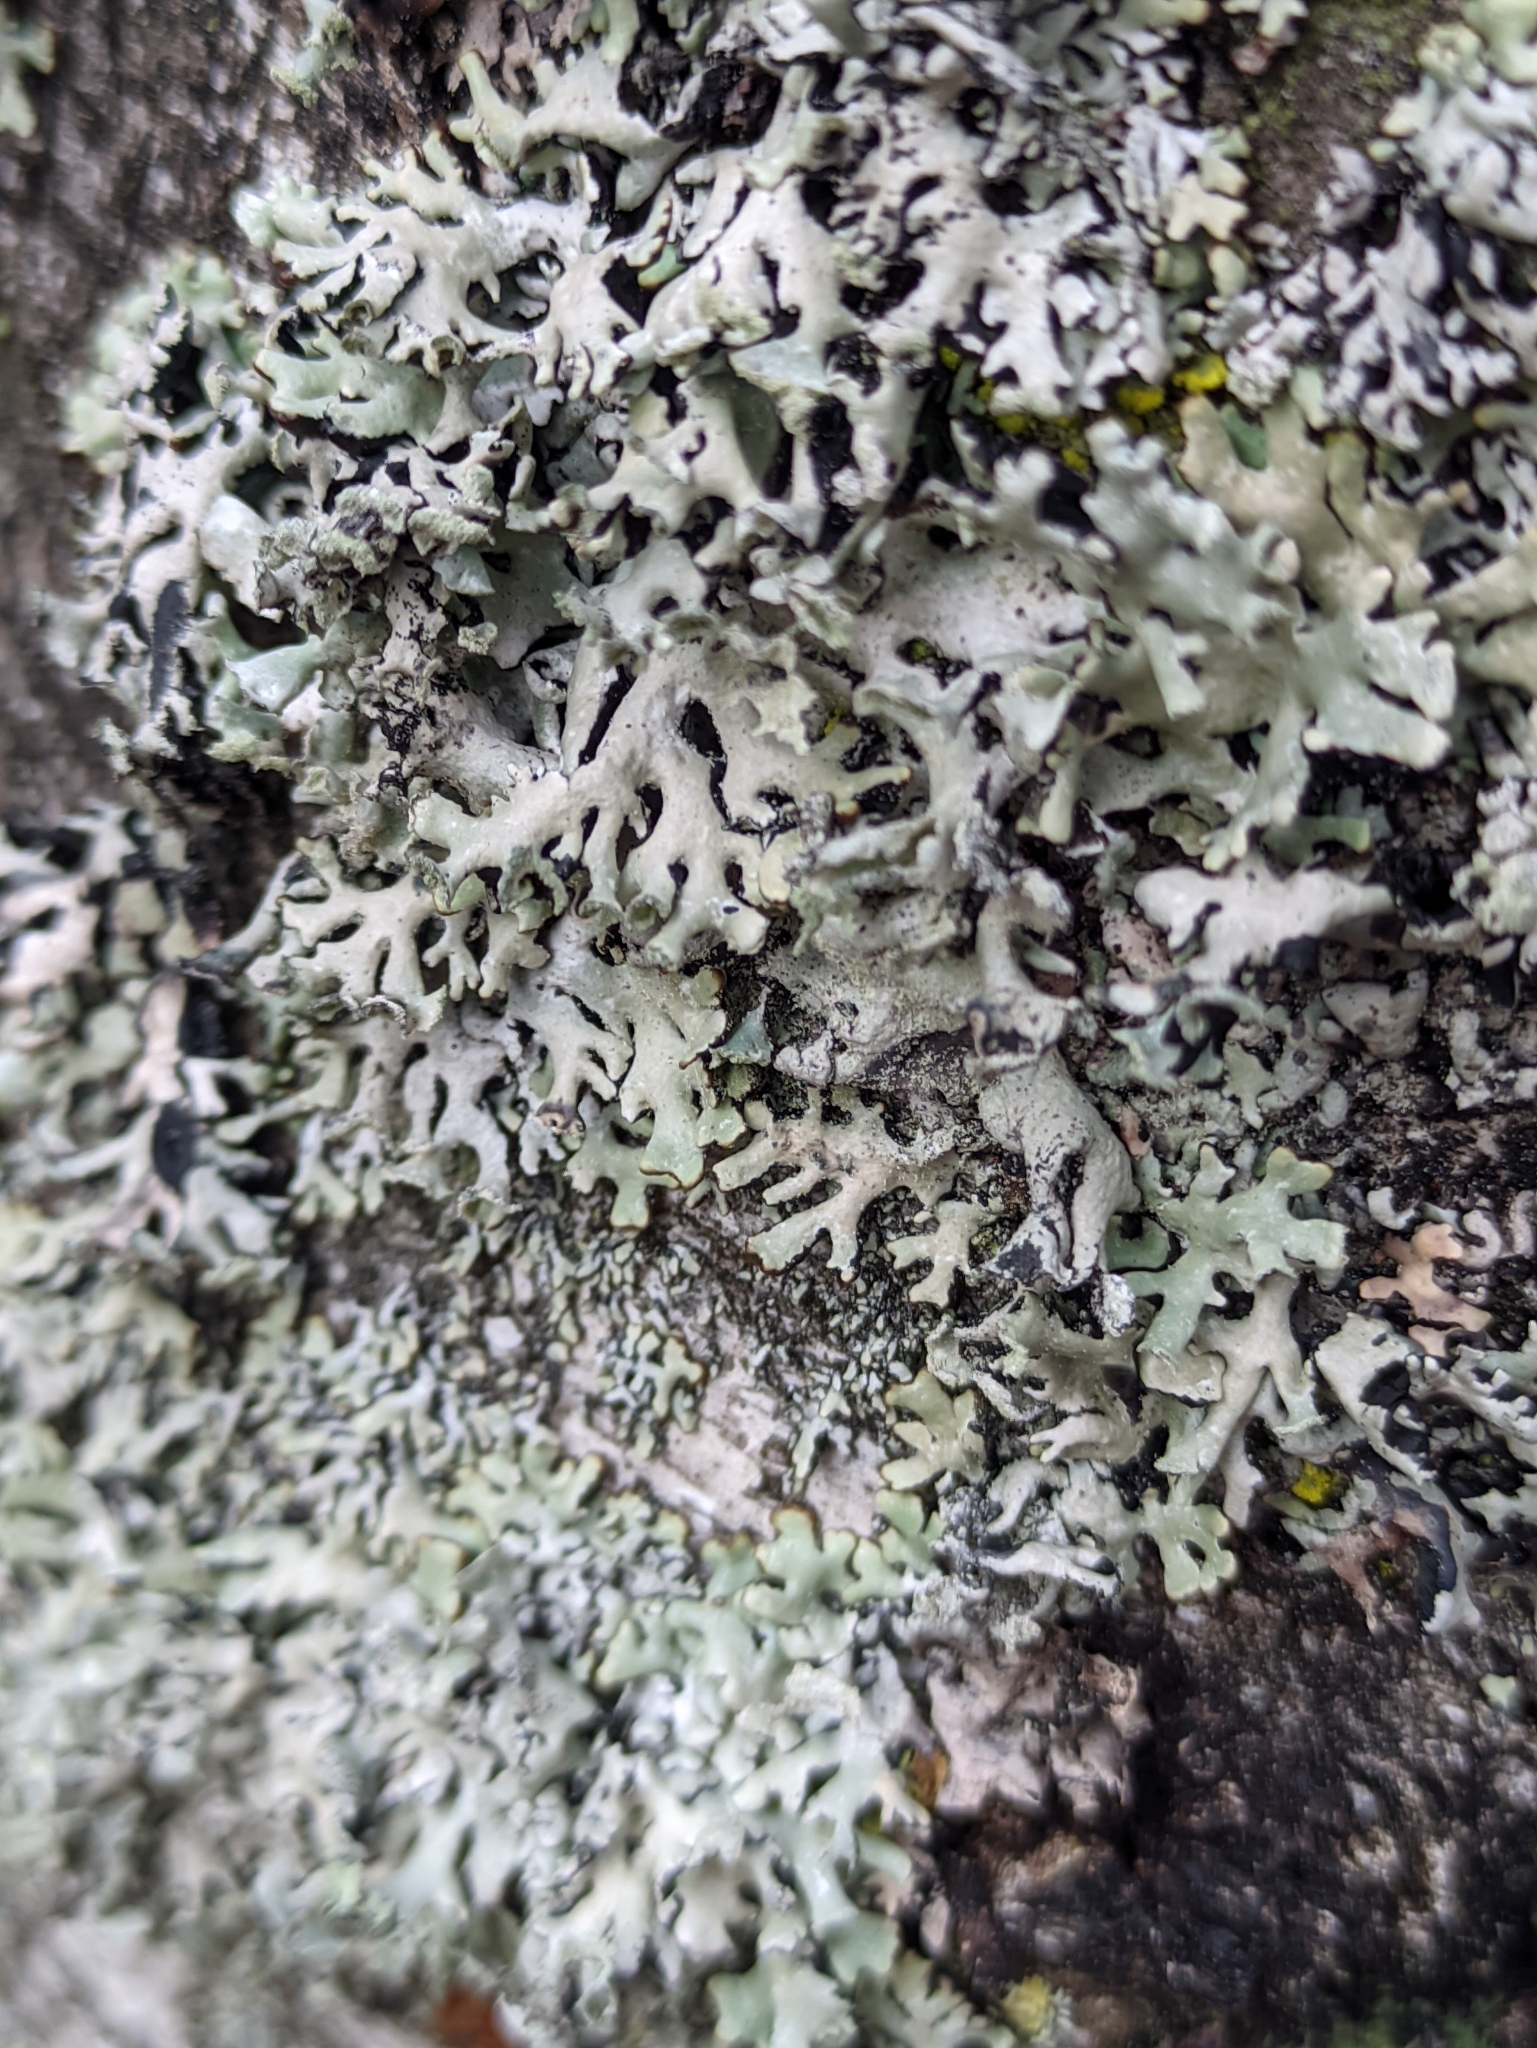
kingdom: Fungi
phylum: Ascomycota
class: Lecanoromycetes
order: Lecanorales
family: Parmeliaceae
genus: Hypogymnia
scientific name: Hypogymnia physodes
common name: Dark crottle
